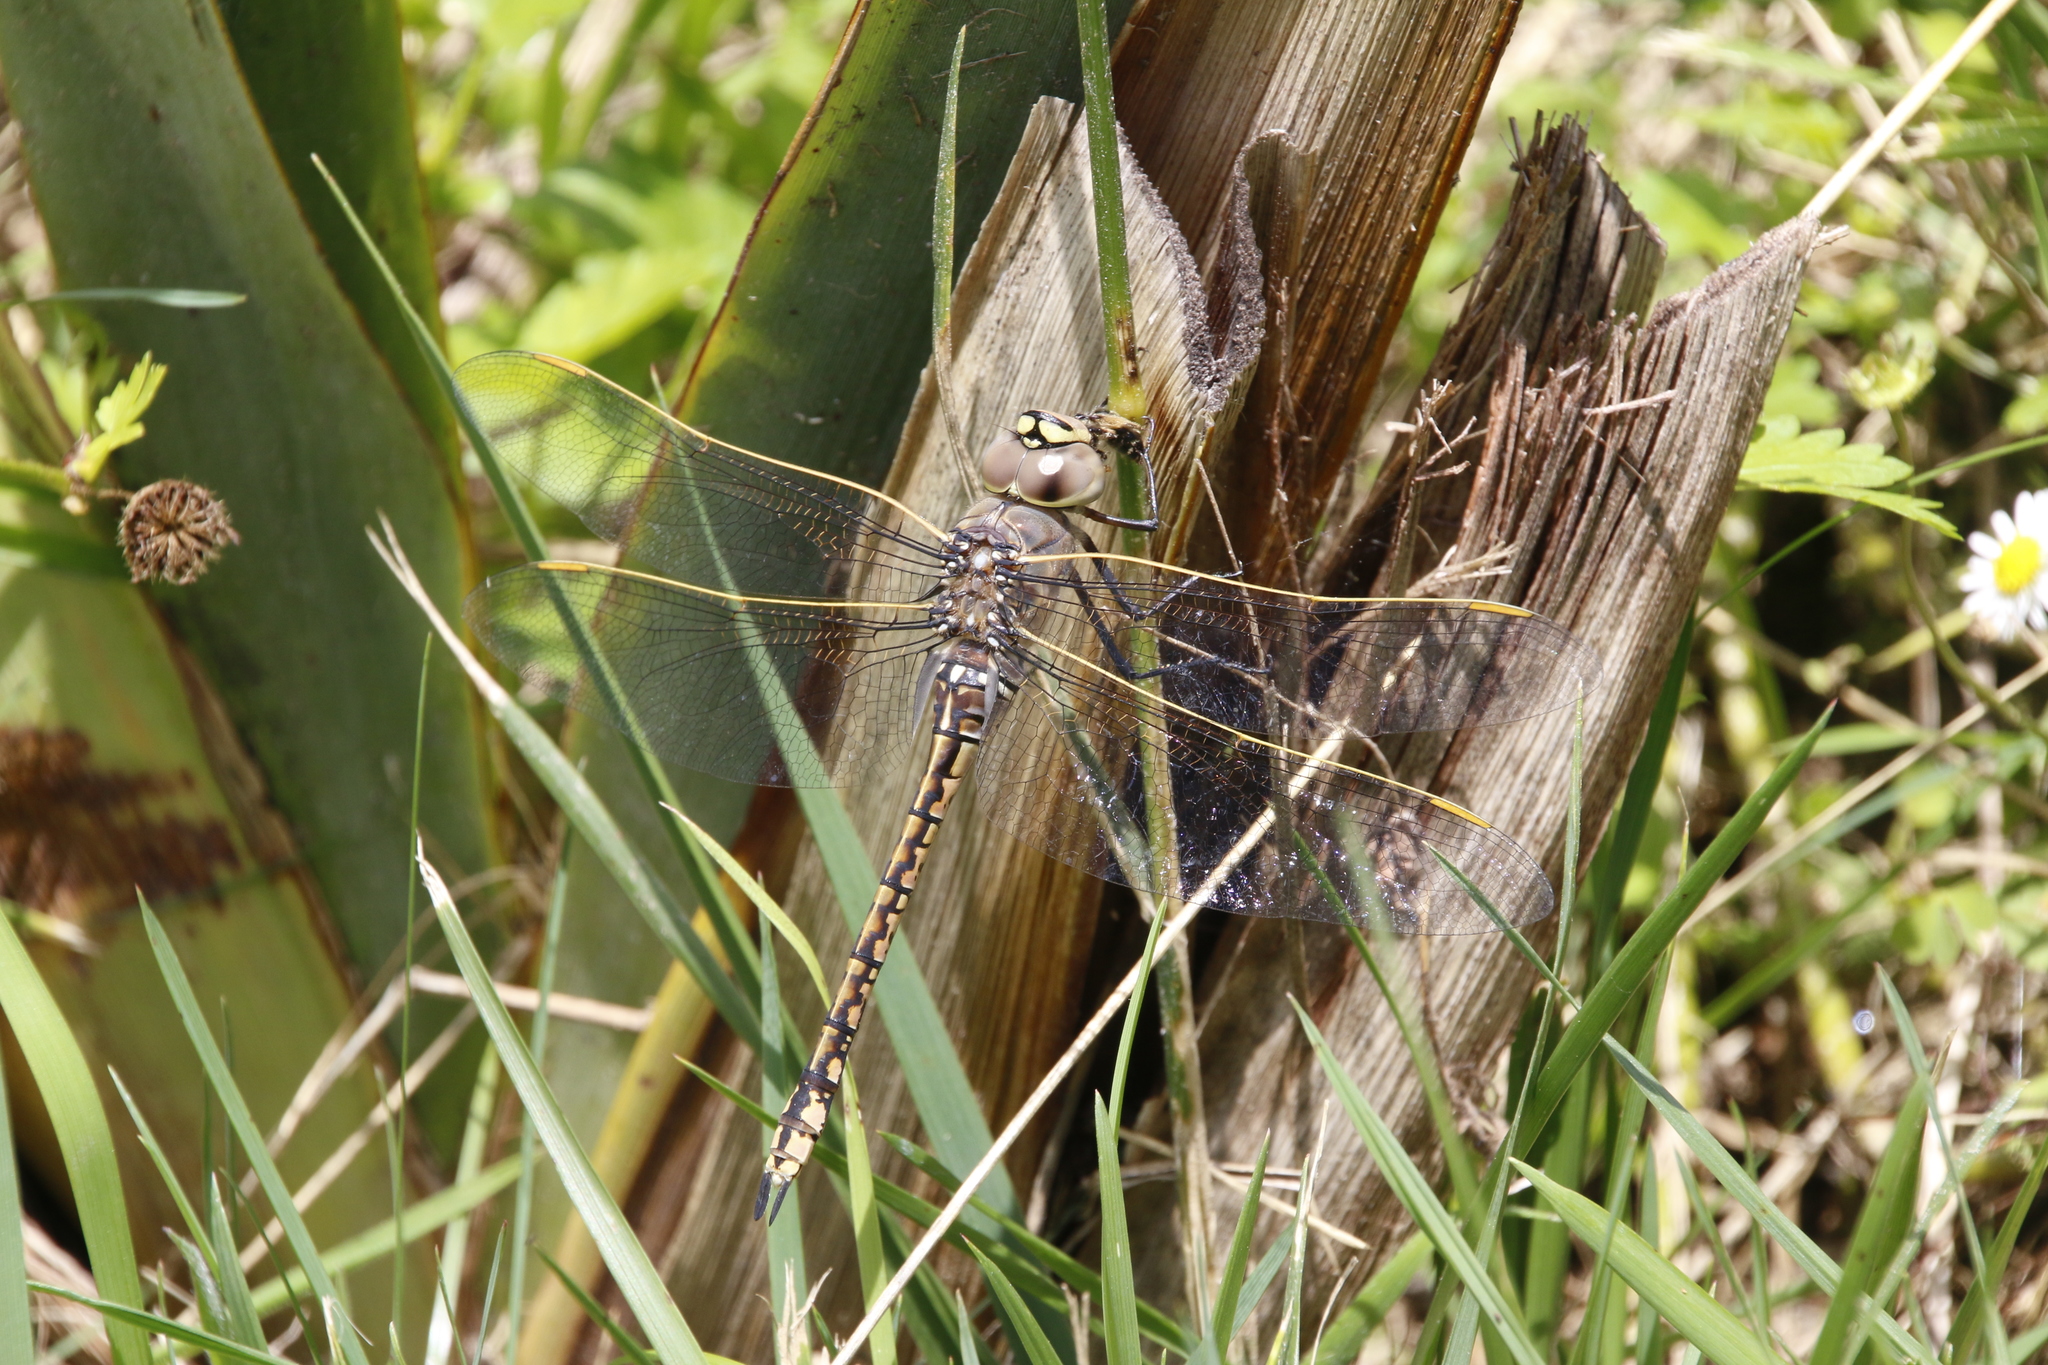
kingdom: Animalia
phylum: Arthropoda
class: Insecta
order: Odonata
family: Aeshnidae
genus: Anax
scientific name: Anax papuensis
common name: Australian emperor
